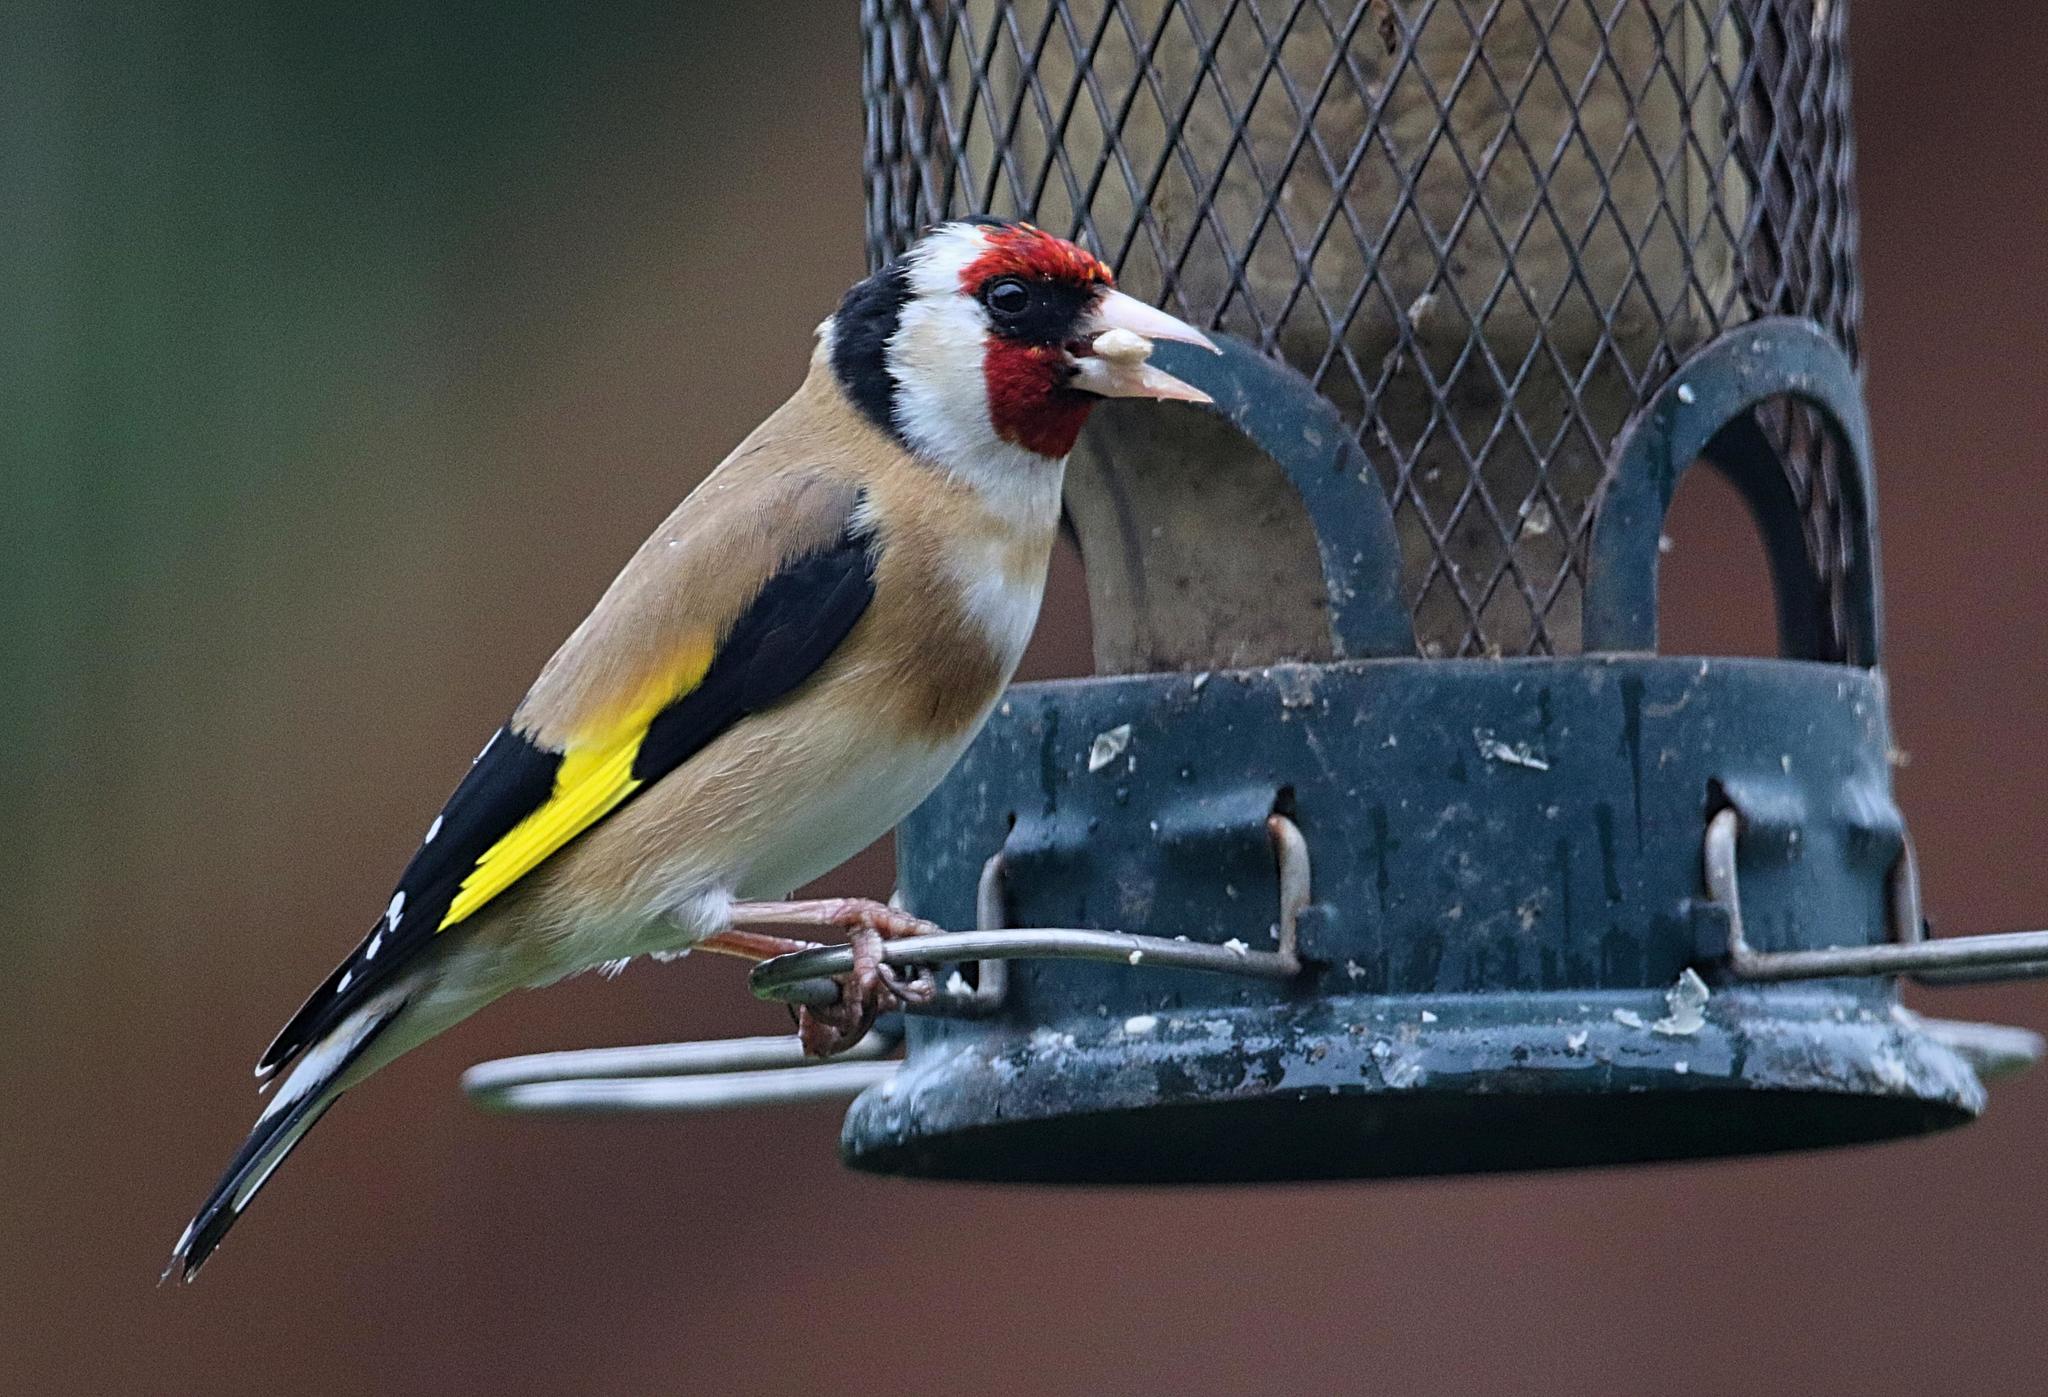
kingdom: Animalia
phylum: Chordata
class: Aves
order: Passeriformes
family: Fringillidae
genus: Carduelis
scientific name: Carduelis carduelis
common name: European goldfinch
